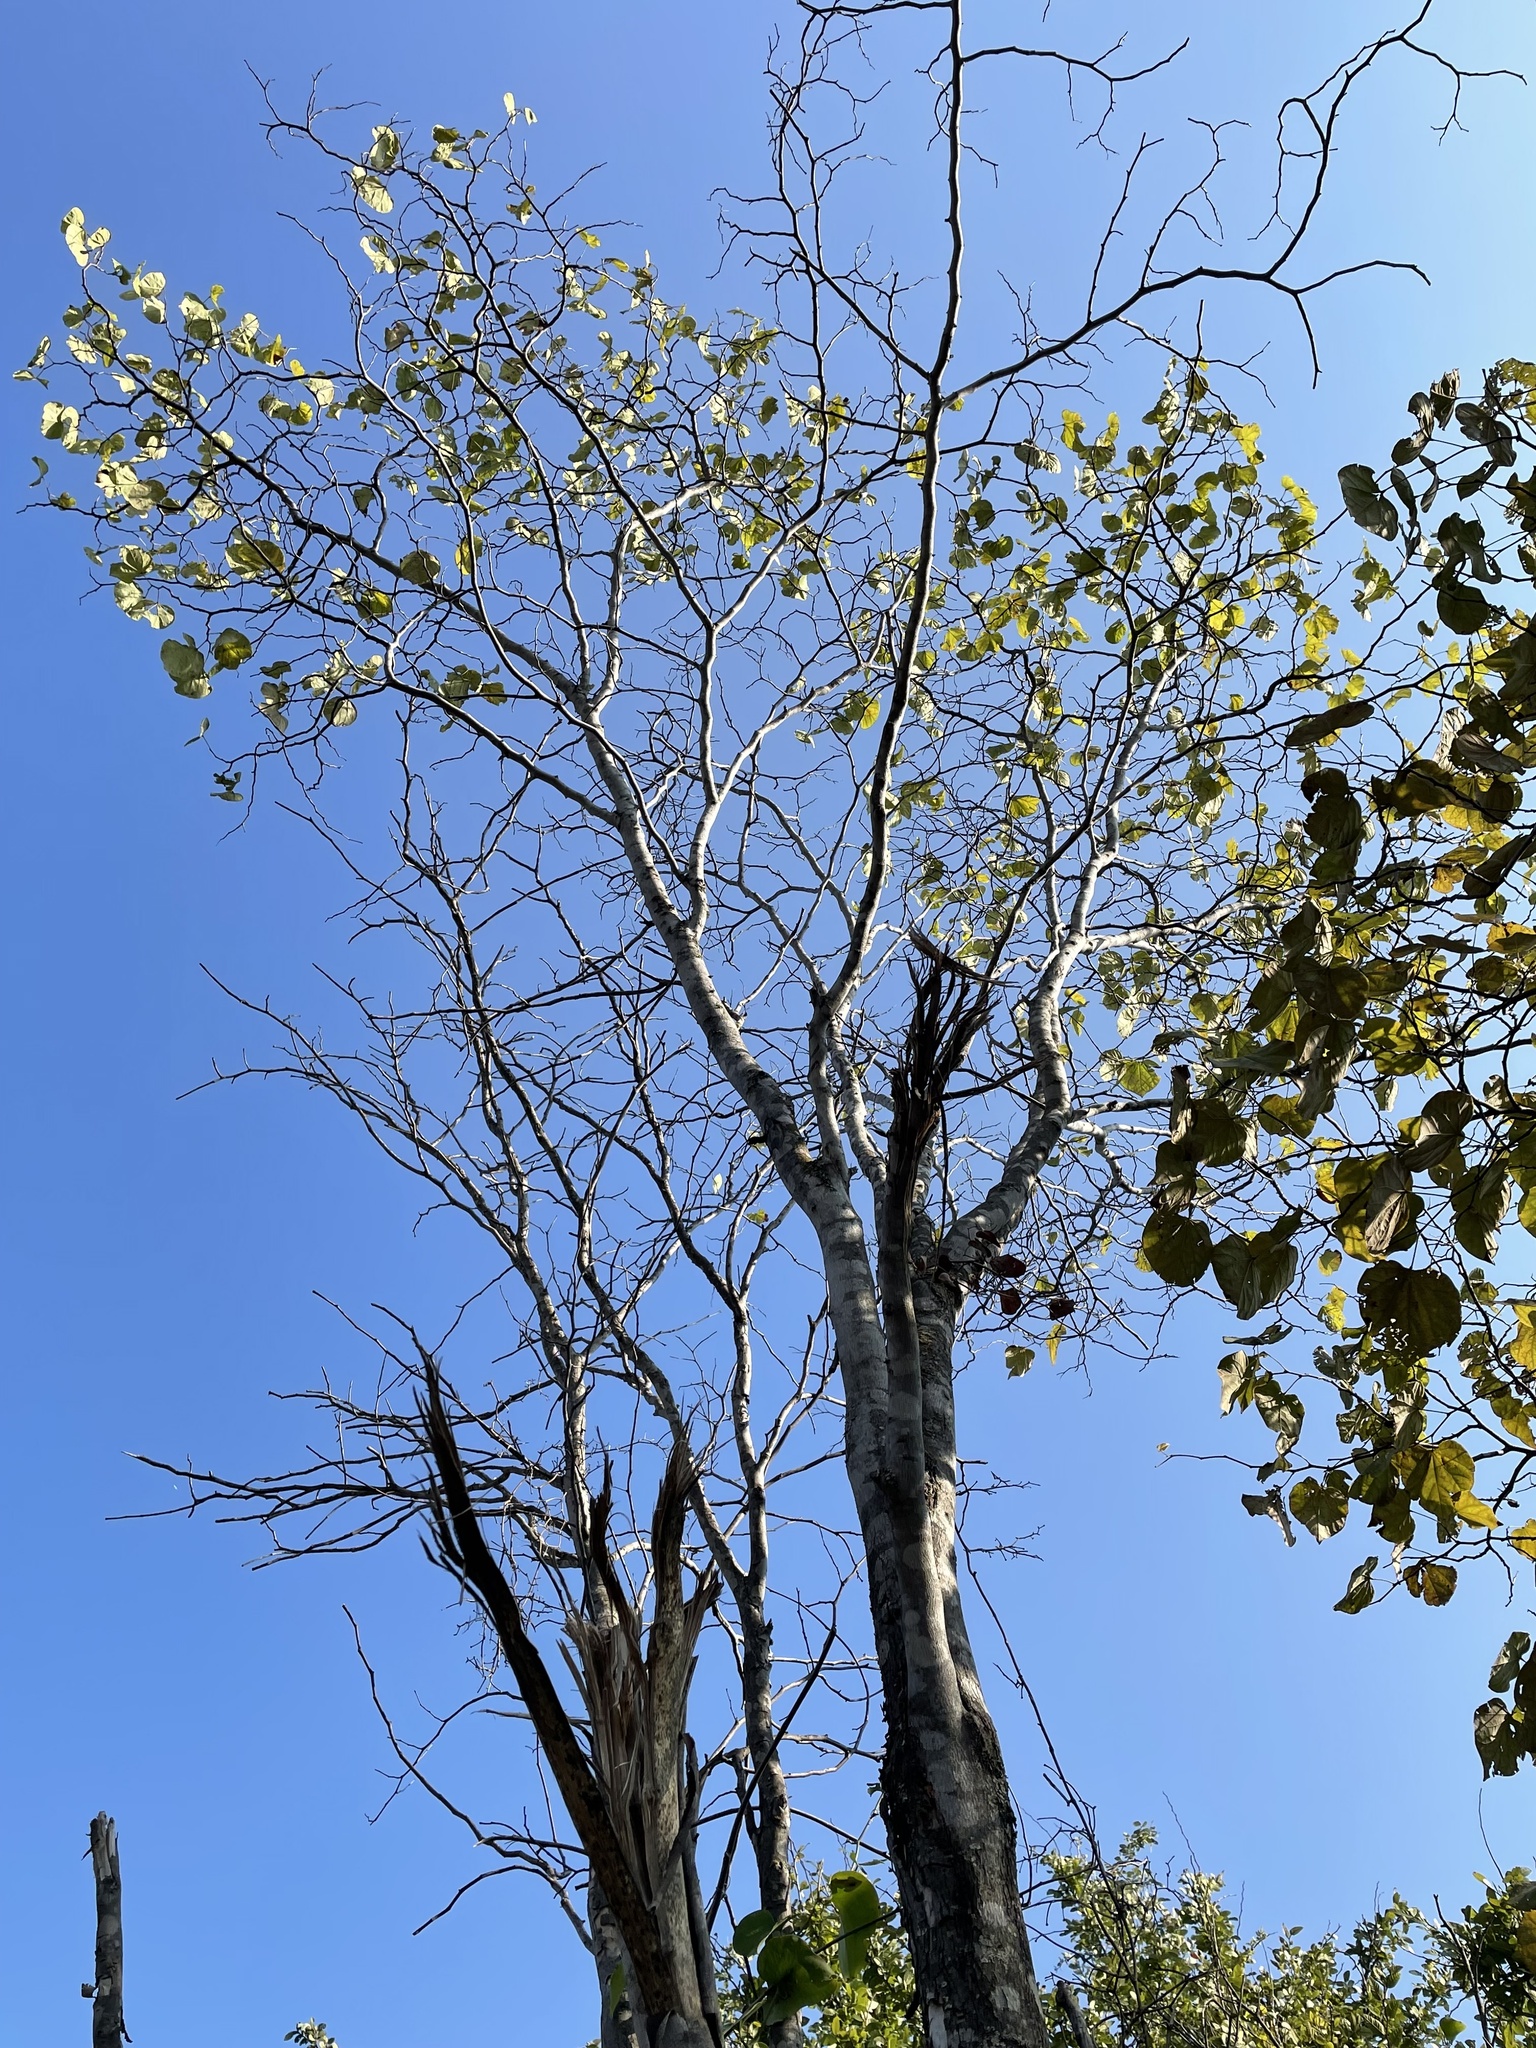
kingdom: Plantae
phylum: Tracheophyta
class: Magnoliopsida
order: Fabales
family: Fabaceae
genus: Cercis
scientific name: Cercis canadensis
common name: Eastern redbud
